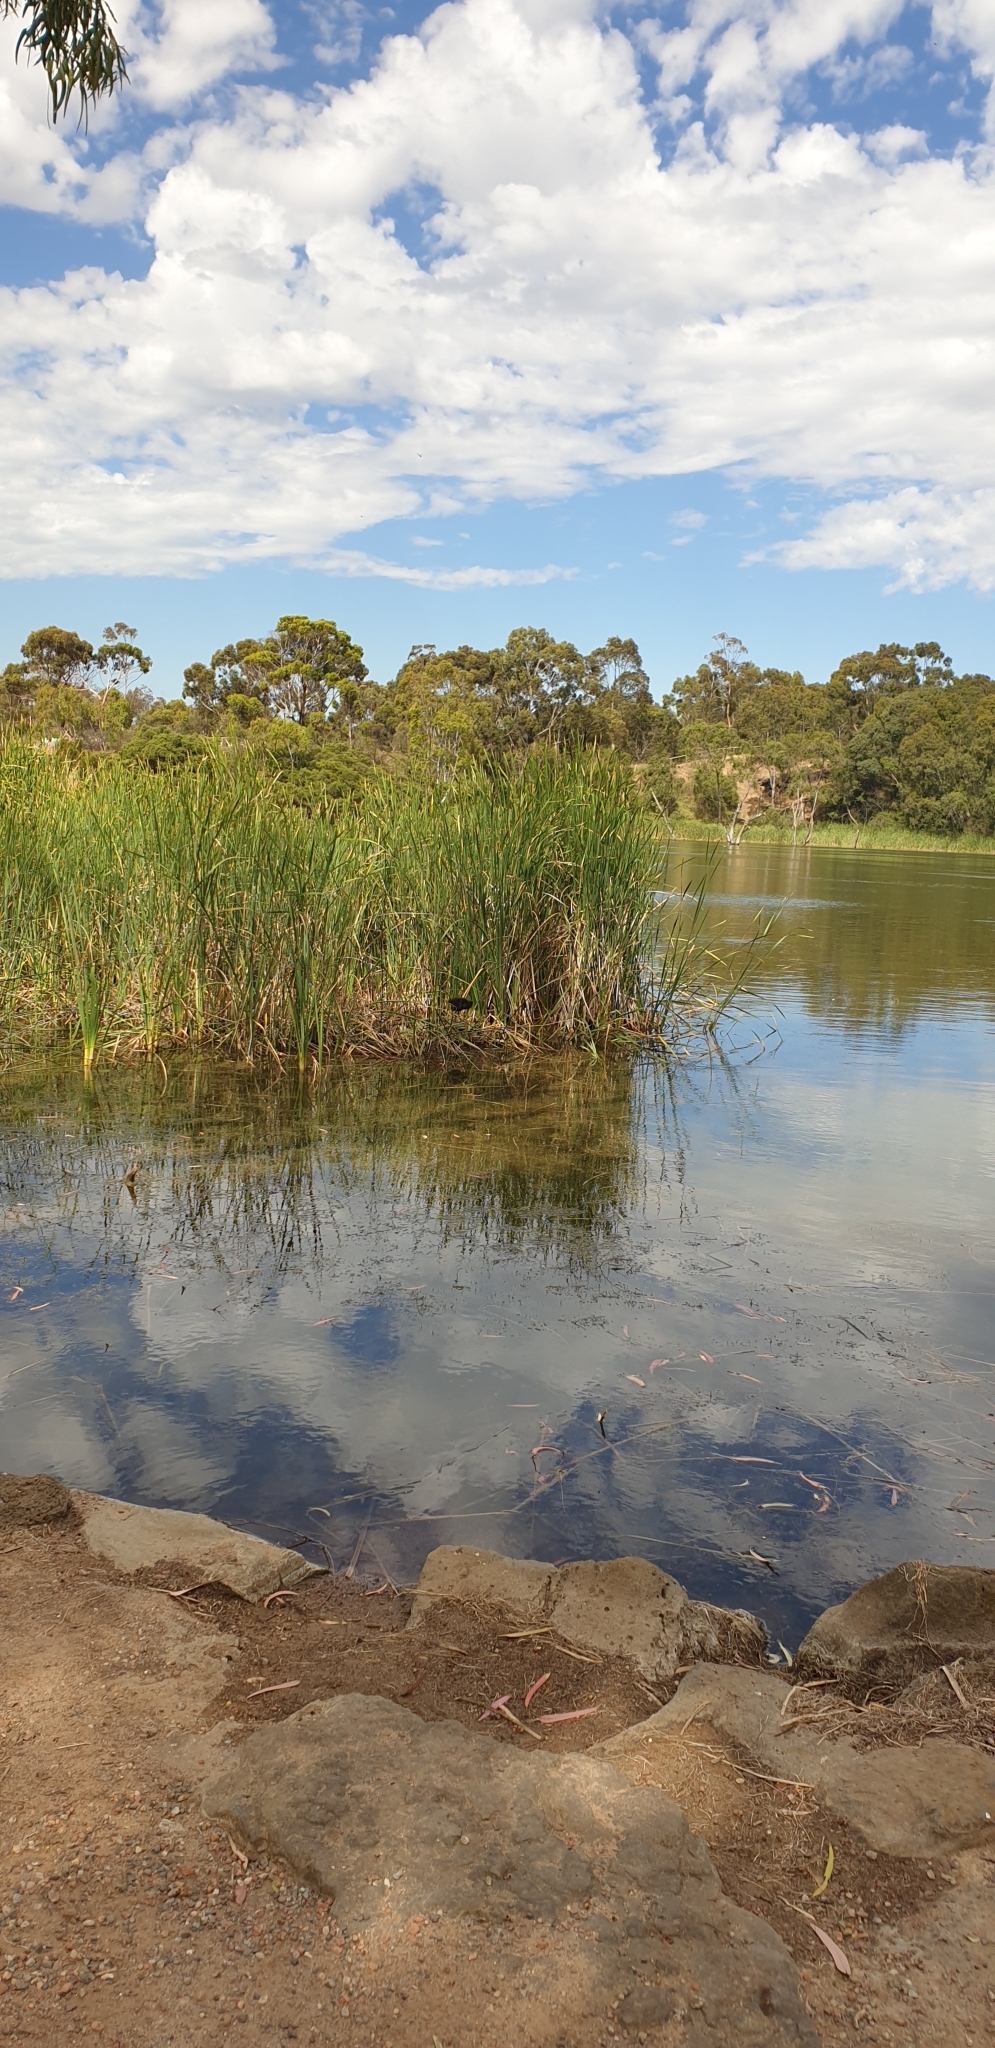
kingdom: Animalia
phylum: Chordata
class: Aves
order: Gruiformes
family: Rallidae
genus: Porphyrio
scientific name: Porphyrio melanotus
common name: Australasian swamphen
